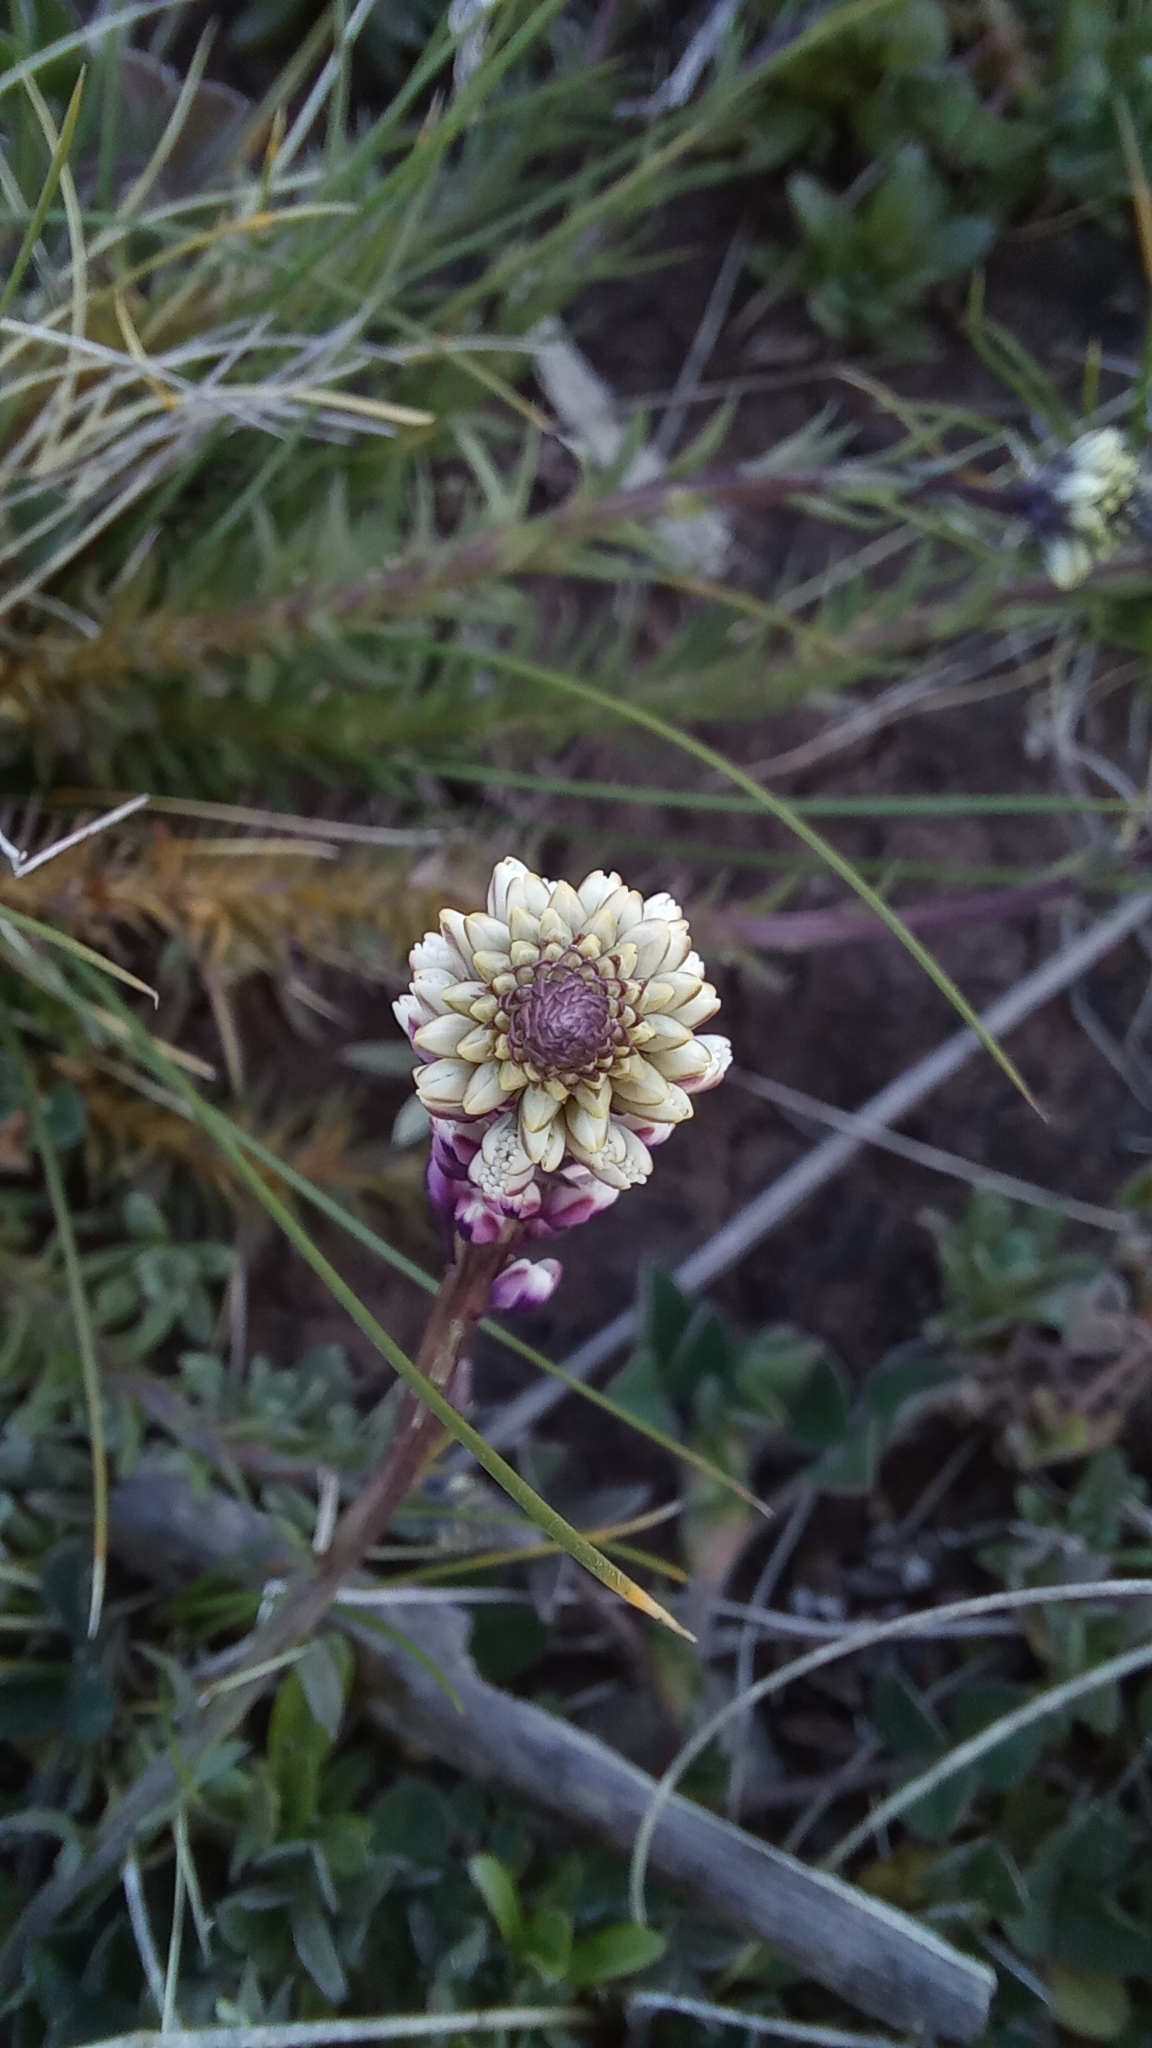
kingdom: Plantae
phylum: Tracheophyta
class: Magnoliopsida
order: Fabales
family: Polygalaceae
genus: Polygala
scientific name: Polygala linoides
